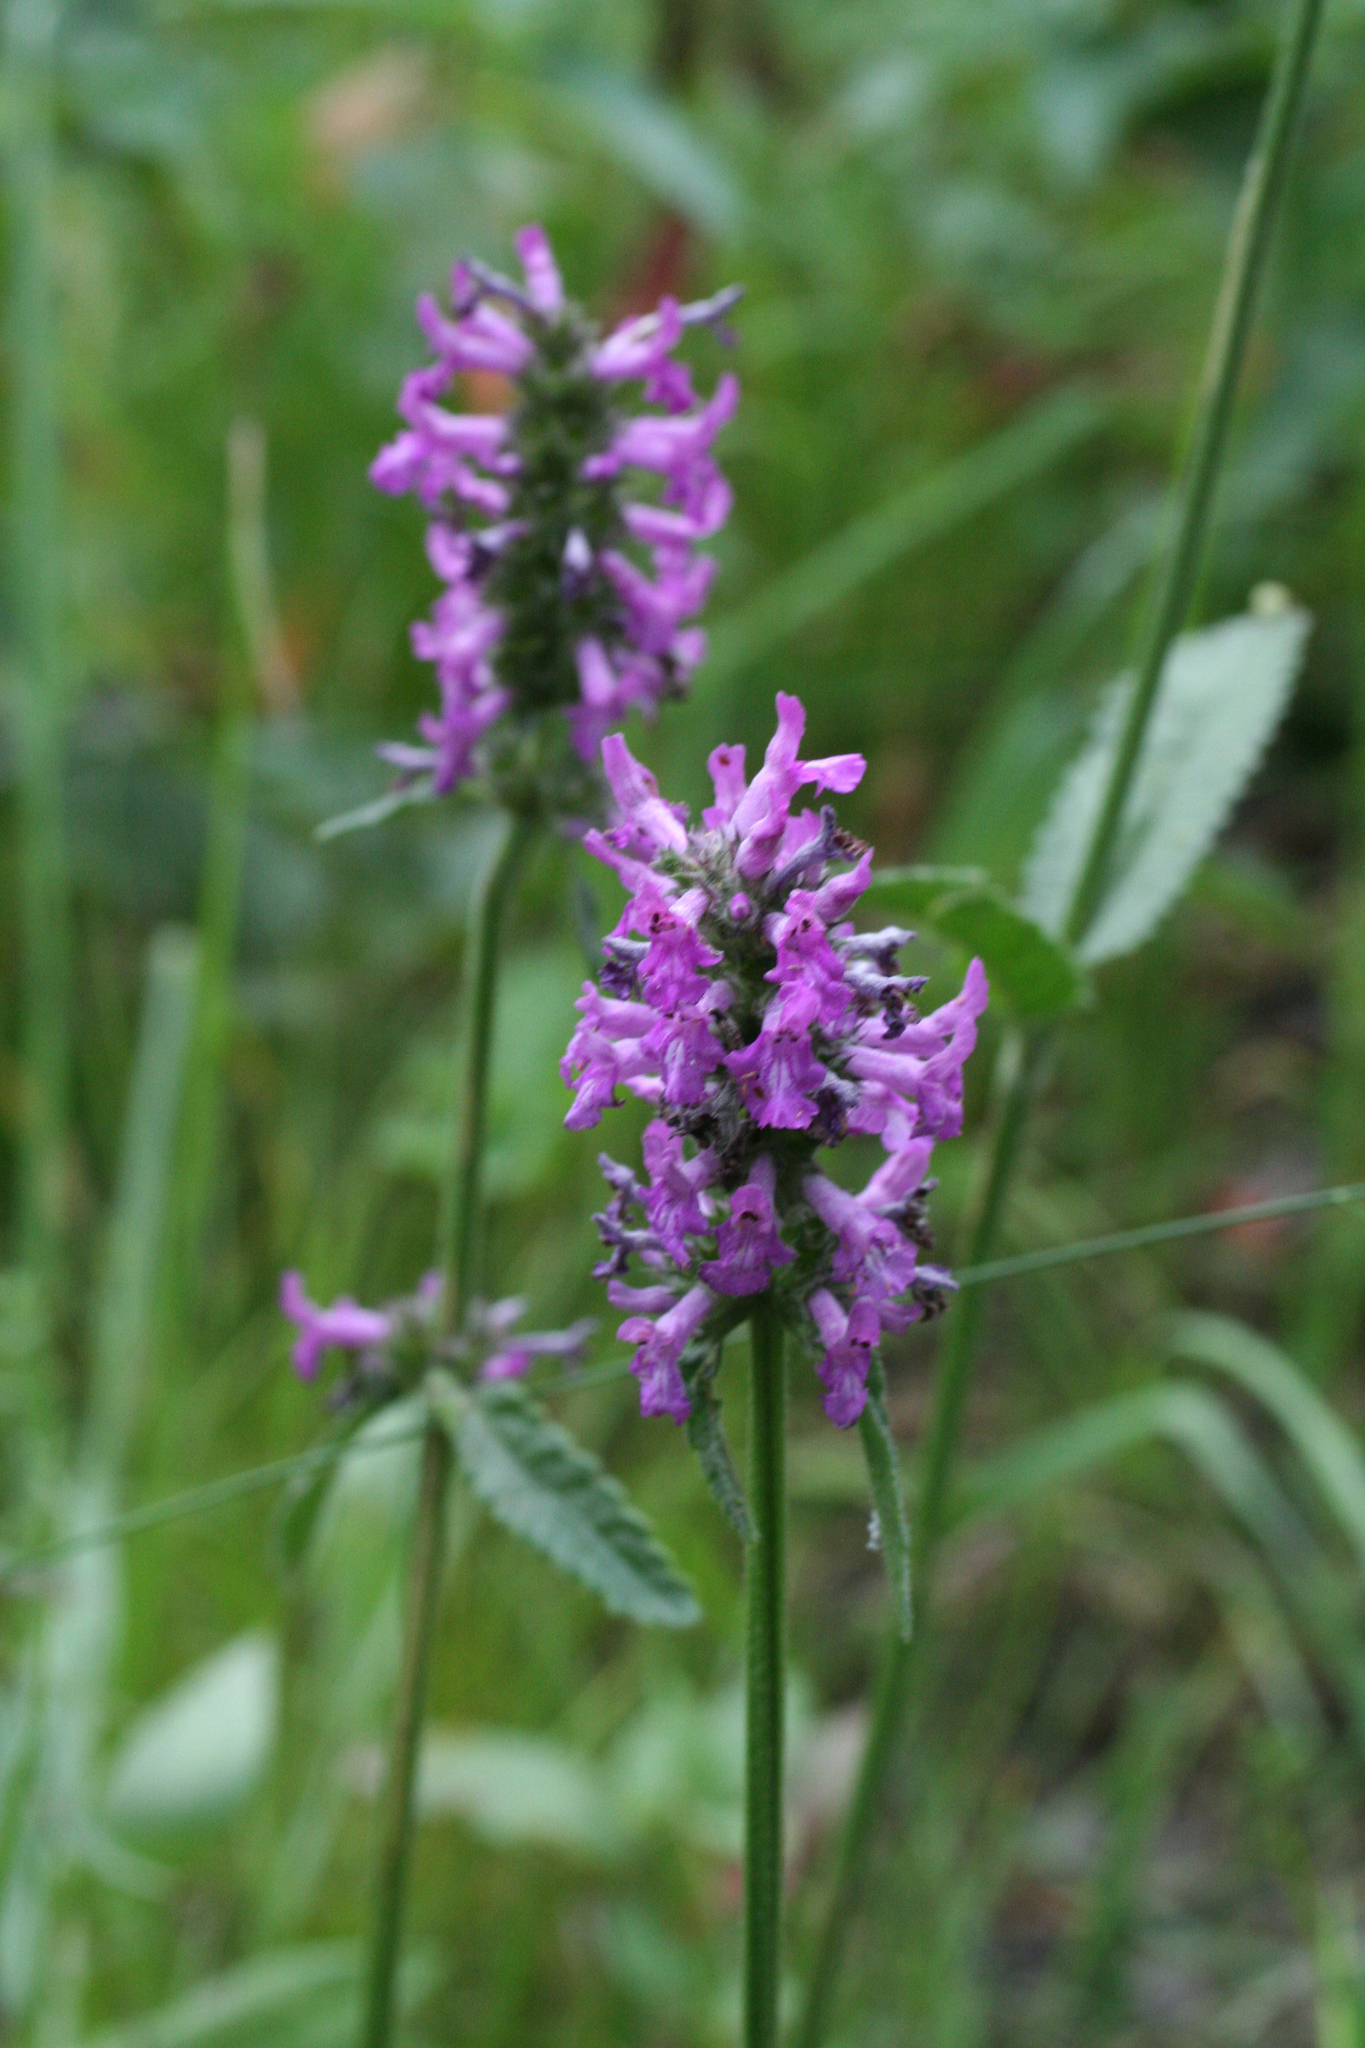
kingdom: Plantae
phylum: Tracheophyta
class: Magnoliopsida
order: Lamiales
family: Lamiaceae
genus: Betonica
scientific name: Betonica officinalis
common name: Bishop's-wort
